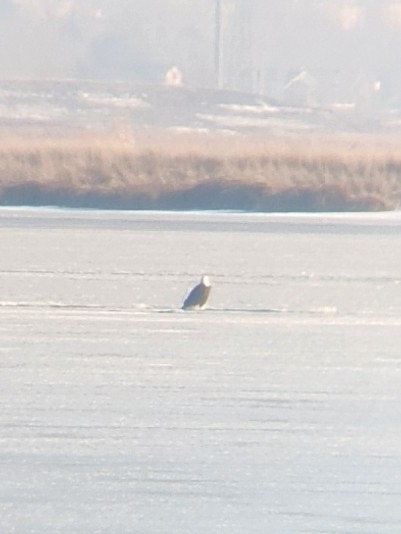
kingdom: Animalia
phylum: Chordata
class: Aves
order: Accipitriformes
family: Accipitridae
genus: Haliaeetus
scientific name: Haliaeetus leucocephalus
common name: Bald eagle
